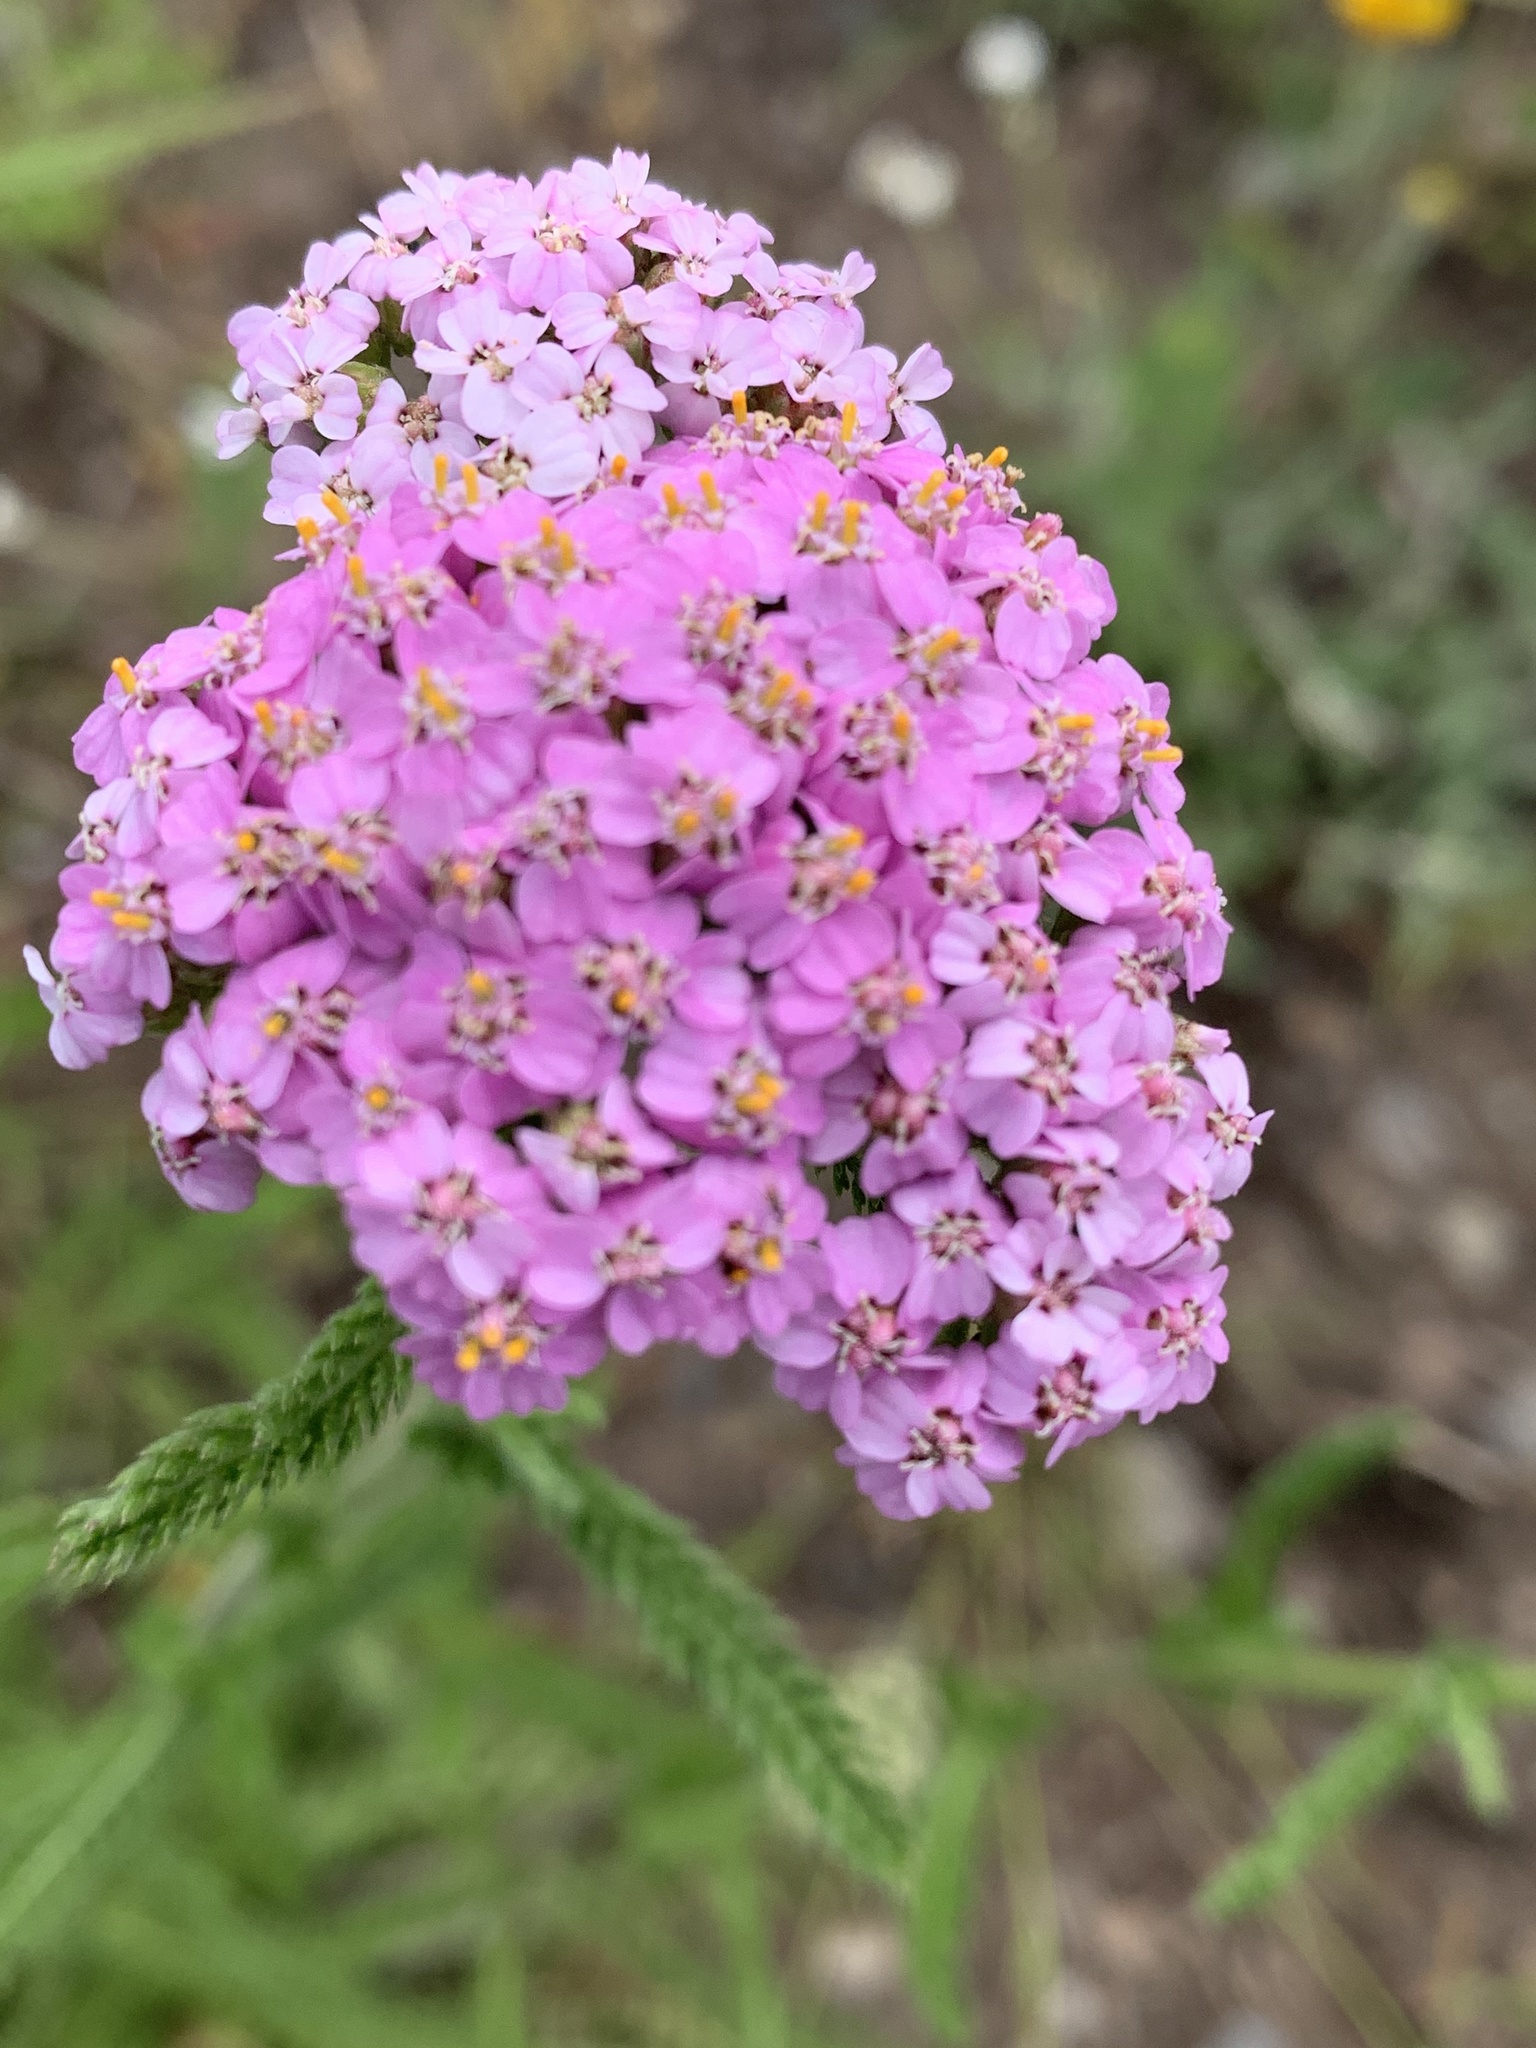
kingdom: Plantae
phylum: Tracheophyta
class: Magnoliopsida
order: Asterales
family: Asteraceae
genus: Achillea
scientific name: Achillea millefolium
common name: Yarrow
